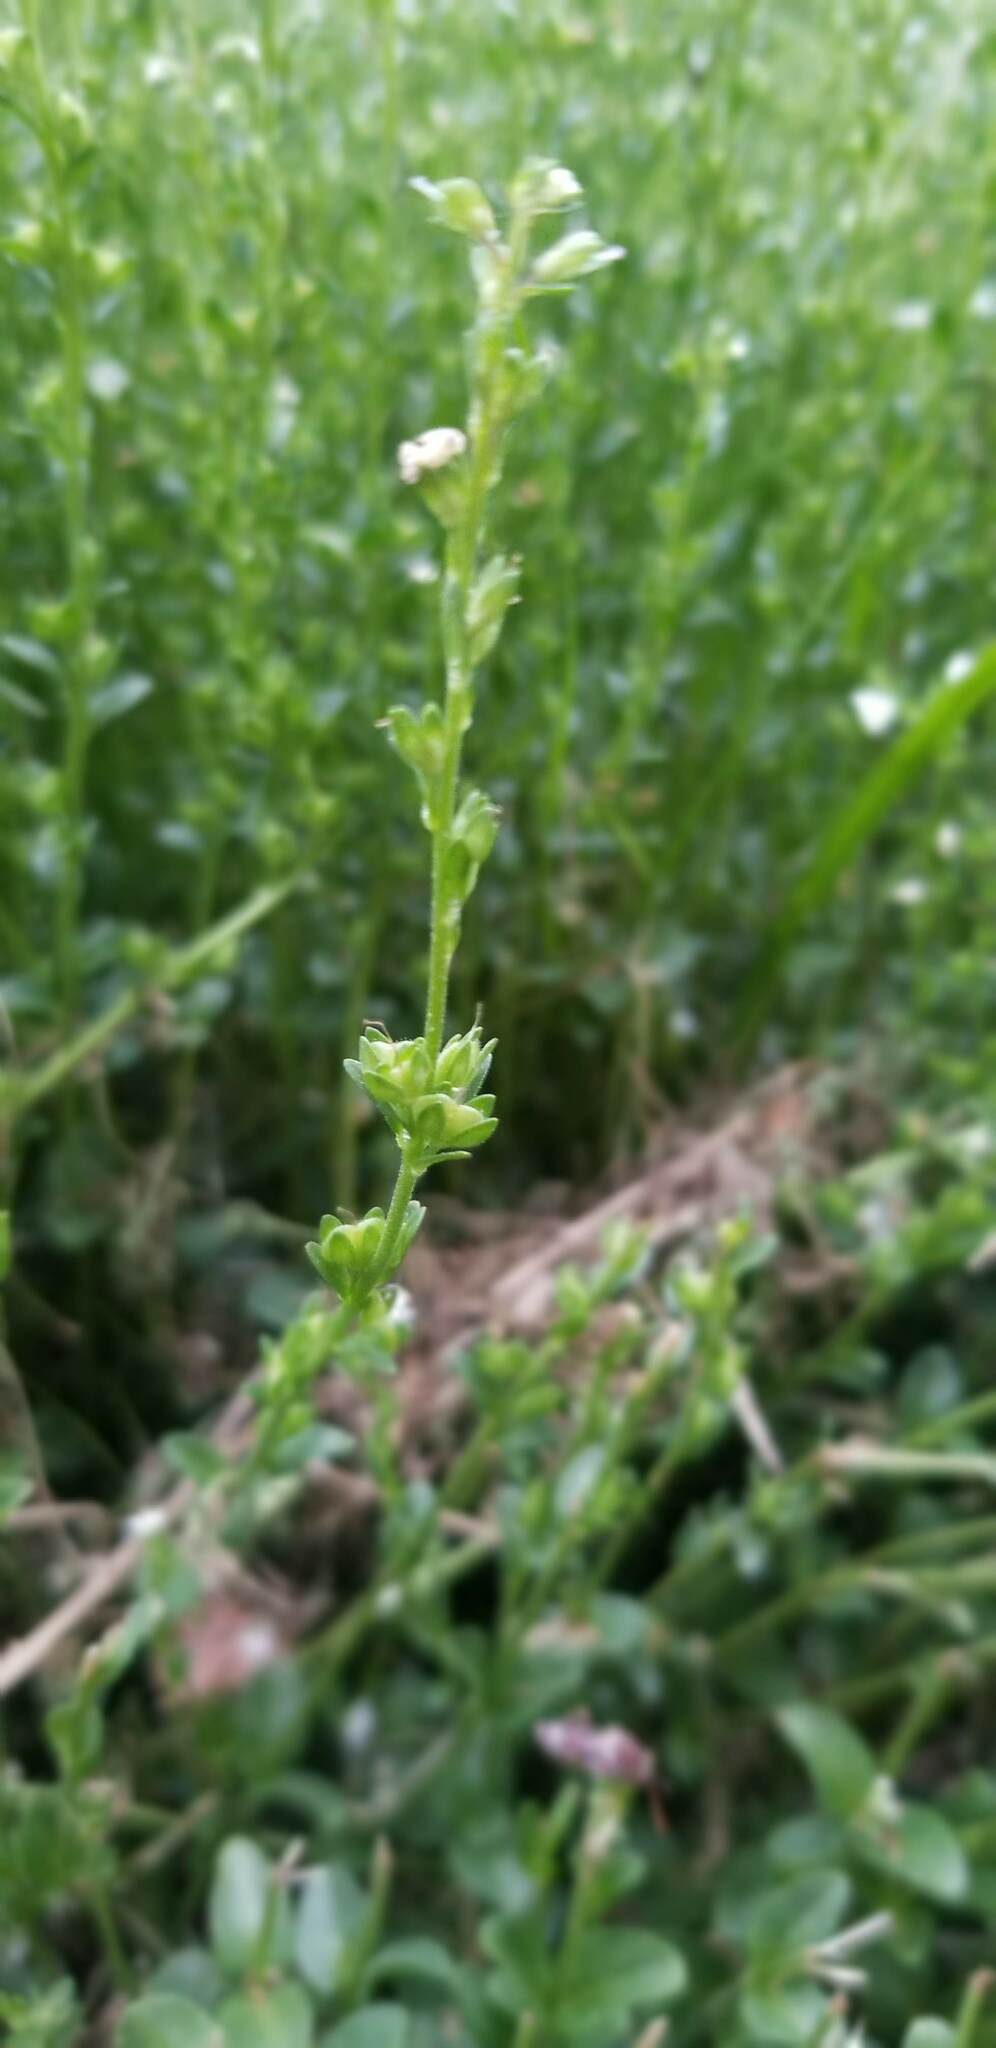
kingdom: Plantae
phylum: Tracheophyta
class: Magnoliopsida
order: Lamiales
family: Plantaginaceae
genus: Veronica
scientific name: Veronica serpyllifolia
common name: Thyme-leaved speedwell
